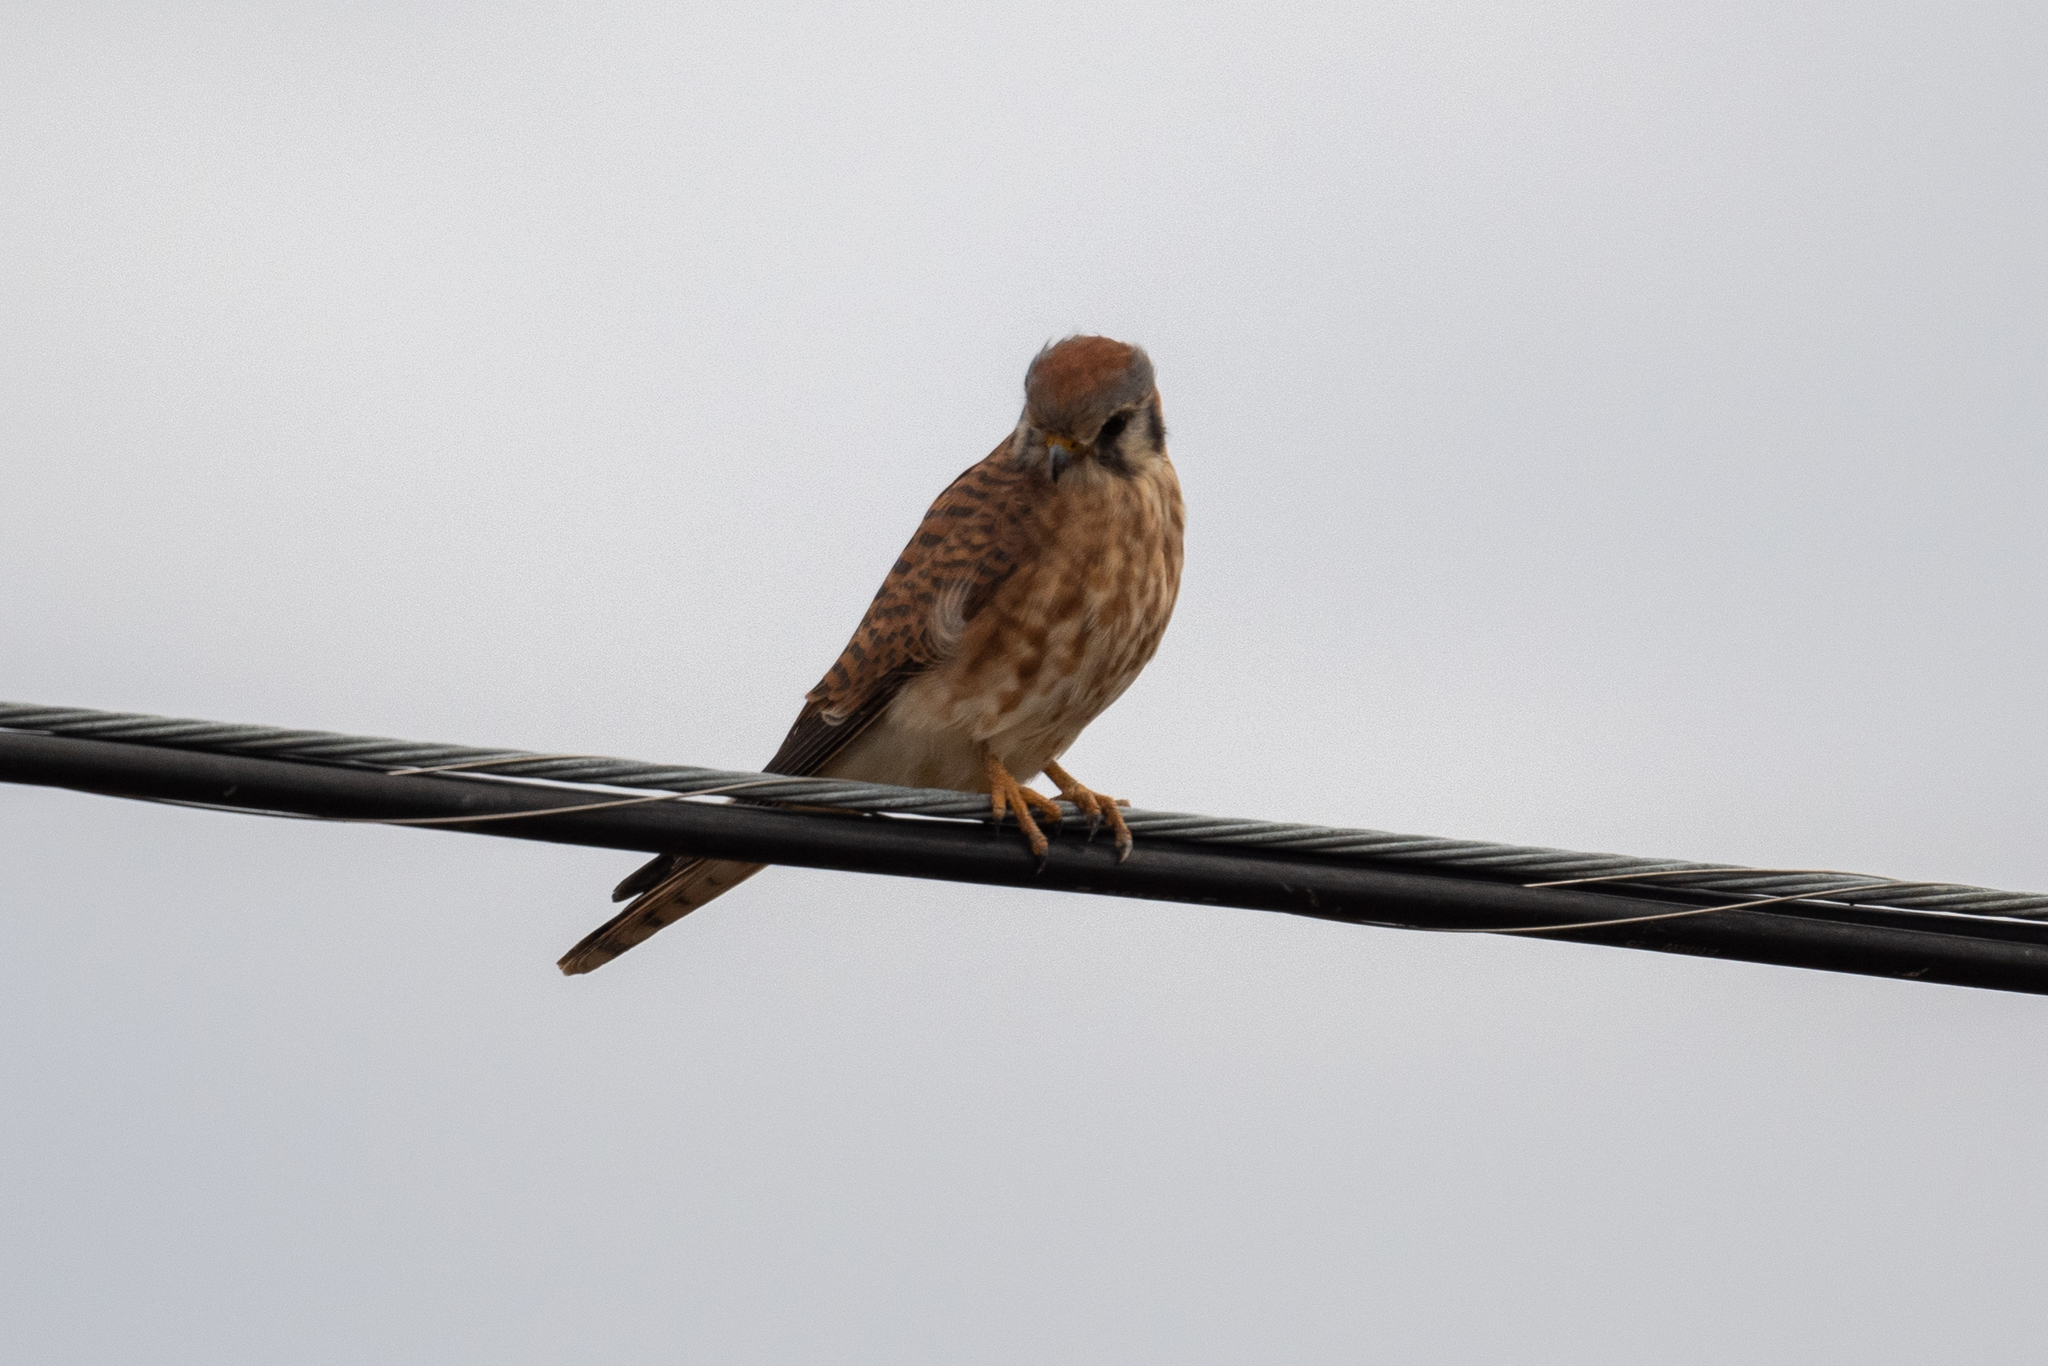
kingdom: Animalia
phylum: Chordata
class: Aves
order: Falconiformes
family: Falconidae
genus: Falco
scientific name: Falco sparverius
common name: American kestrel
